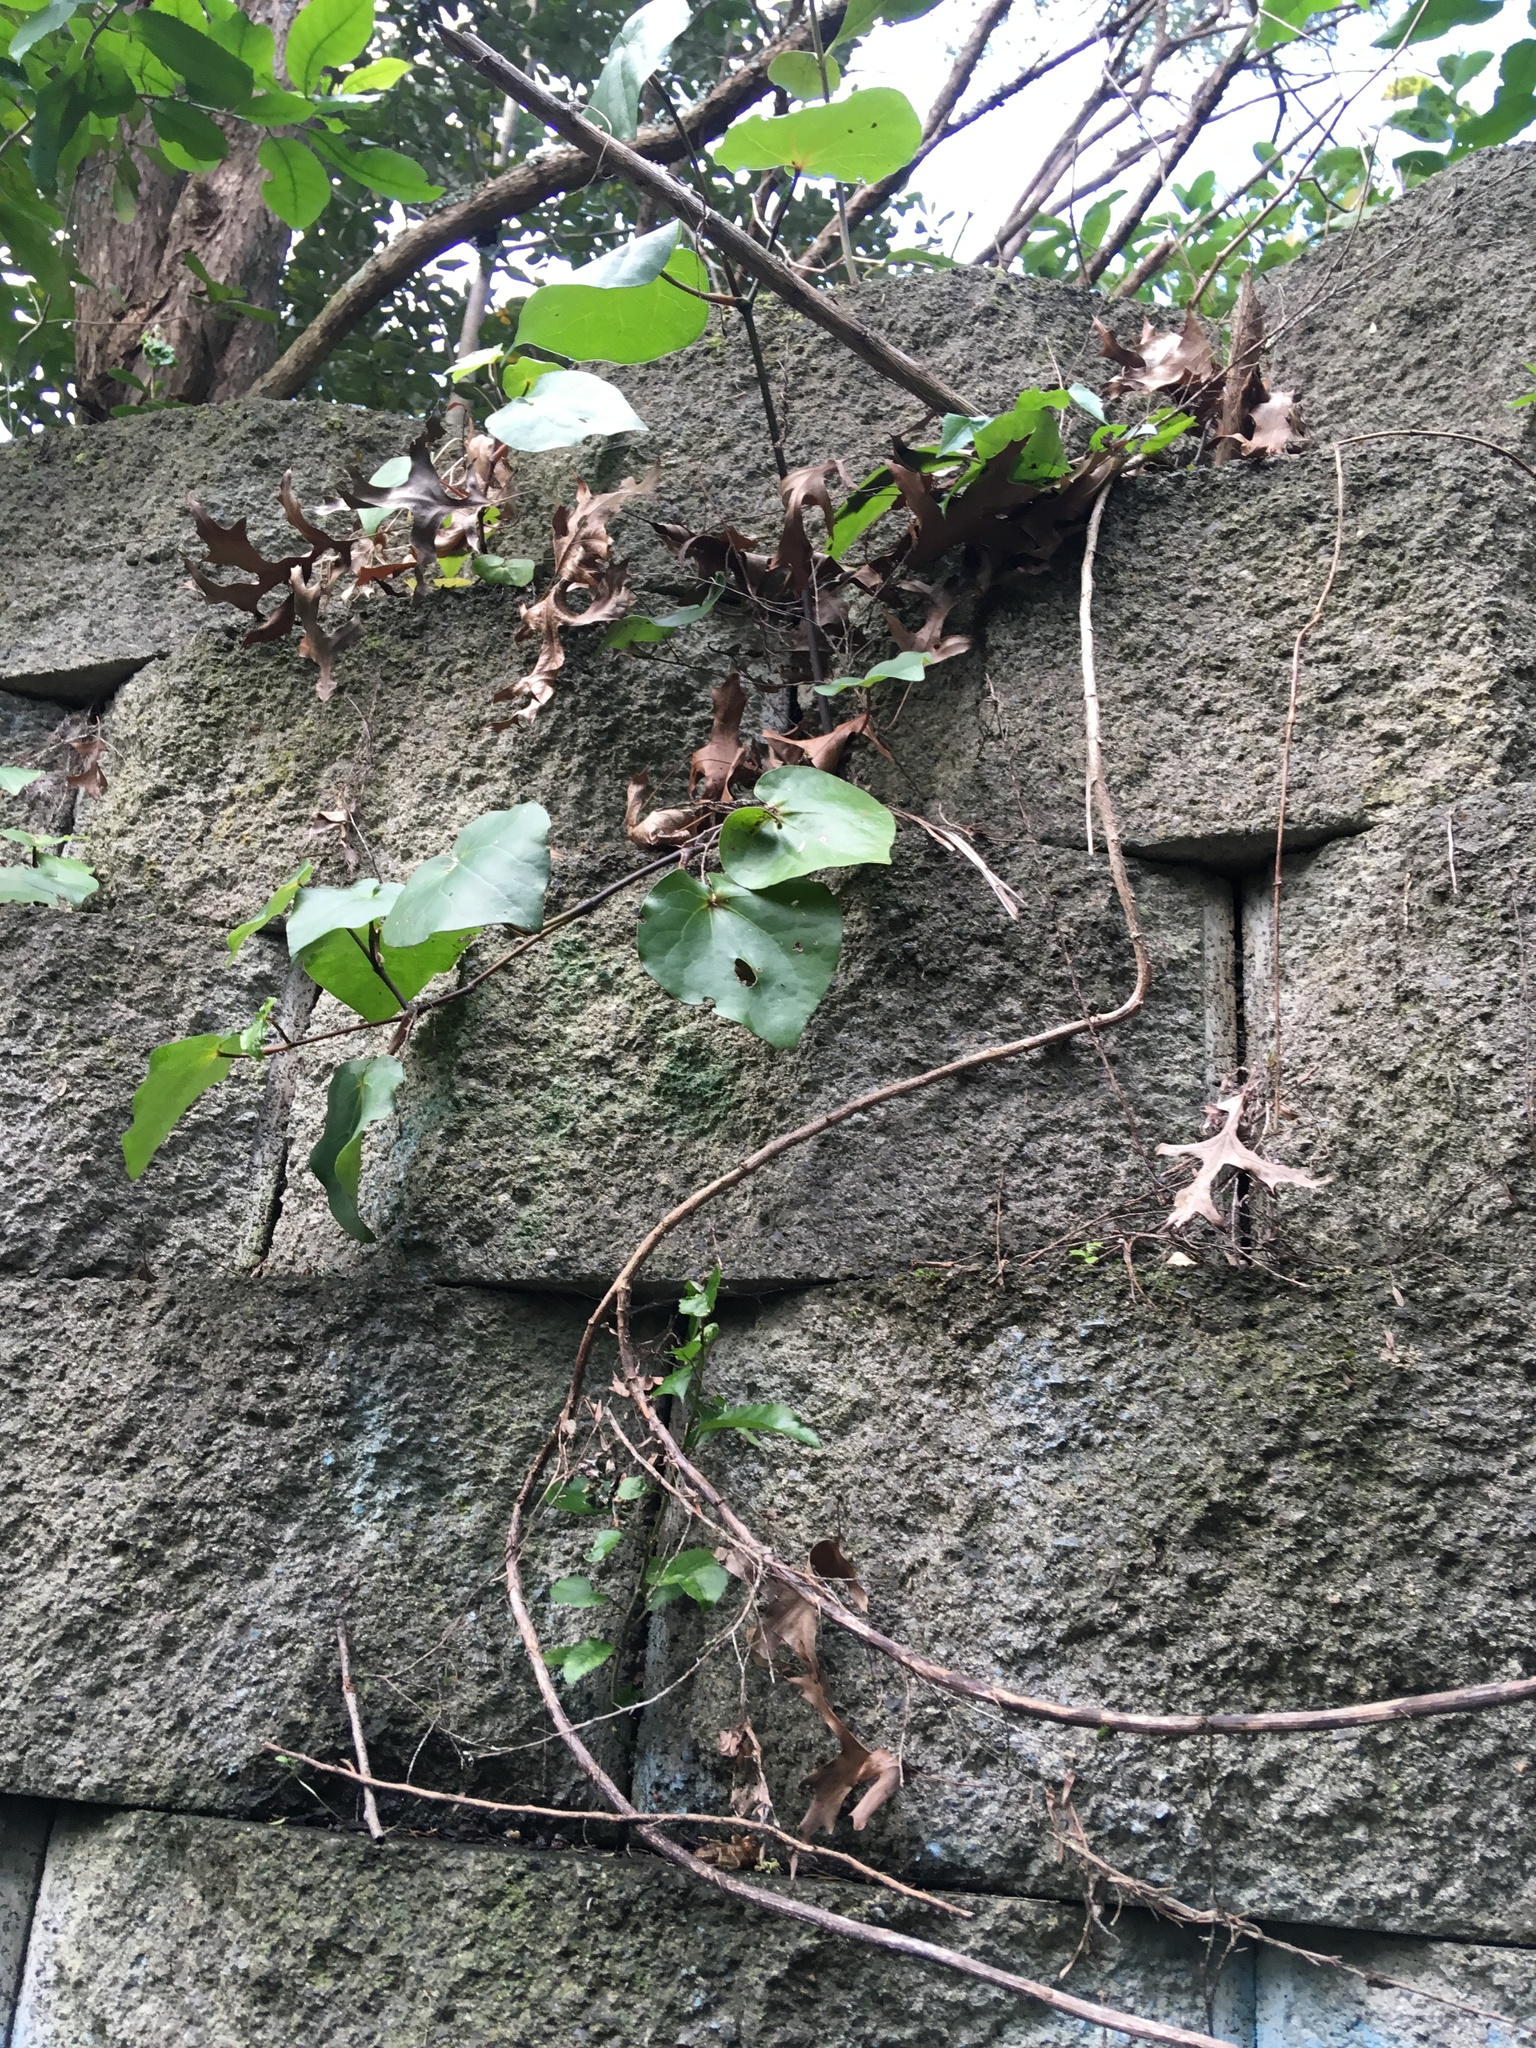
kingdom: Plantae
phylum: Tracheophyta
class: Magnoliopsida
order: Piperales
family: Piperaceae
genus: Macropiper
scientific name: Macropiper excelsum
